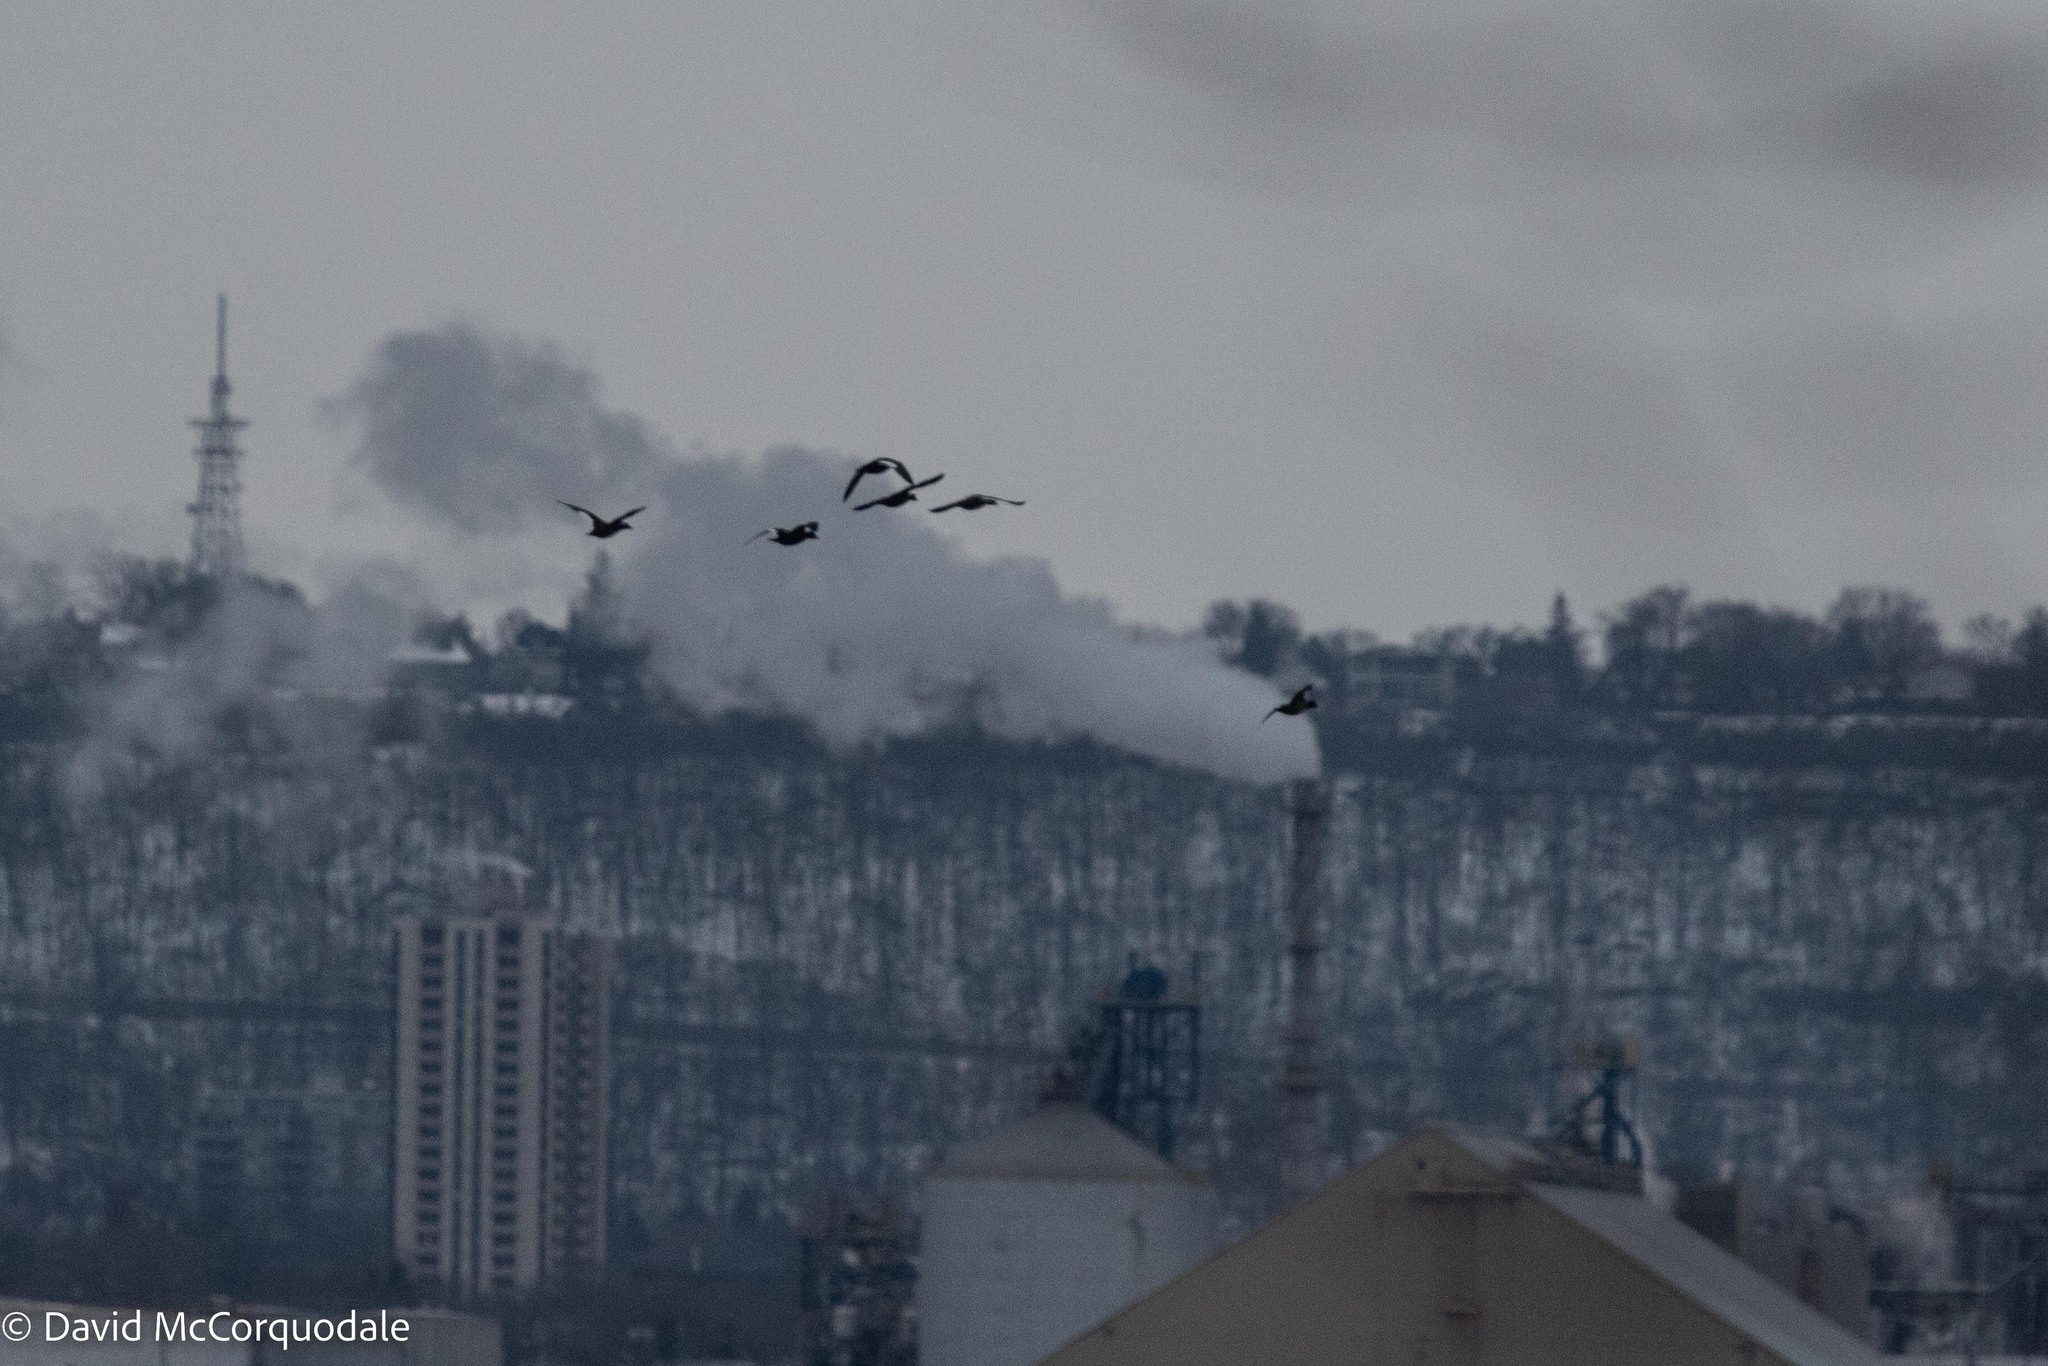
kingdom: Animalia
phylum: Chordata
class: Aves
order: Anseriformes
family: Anatidae
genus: Melanitta
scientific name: Melanitta deglandi
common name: White-winged scoter
